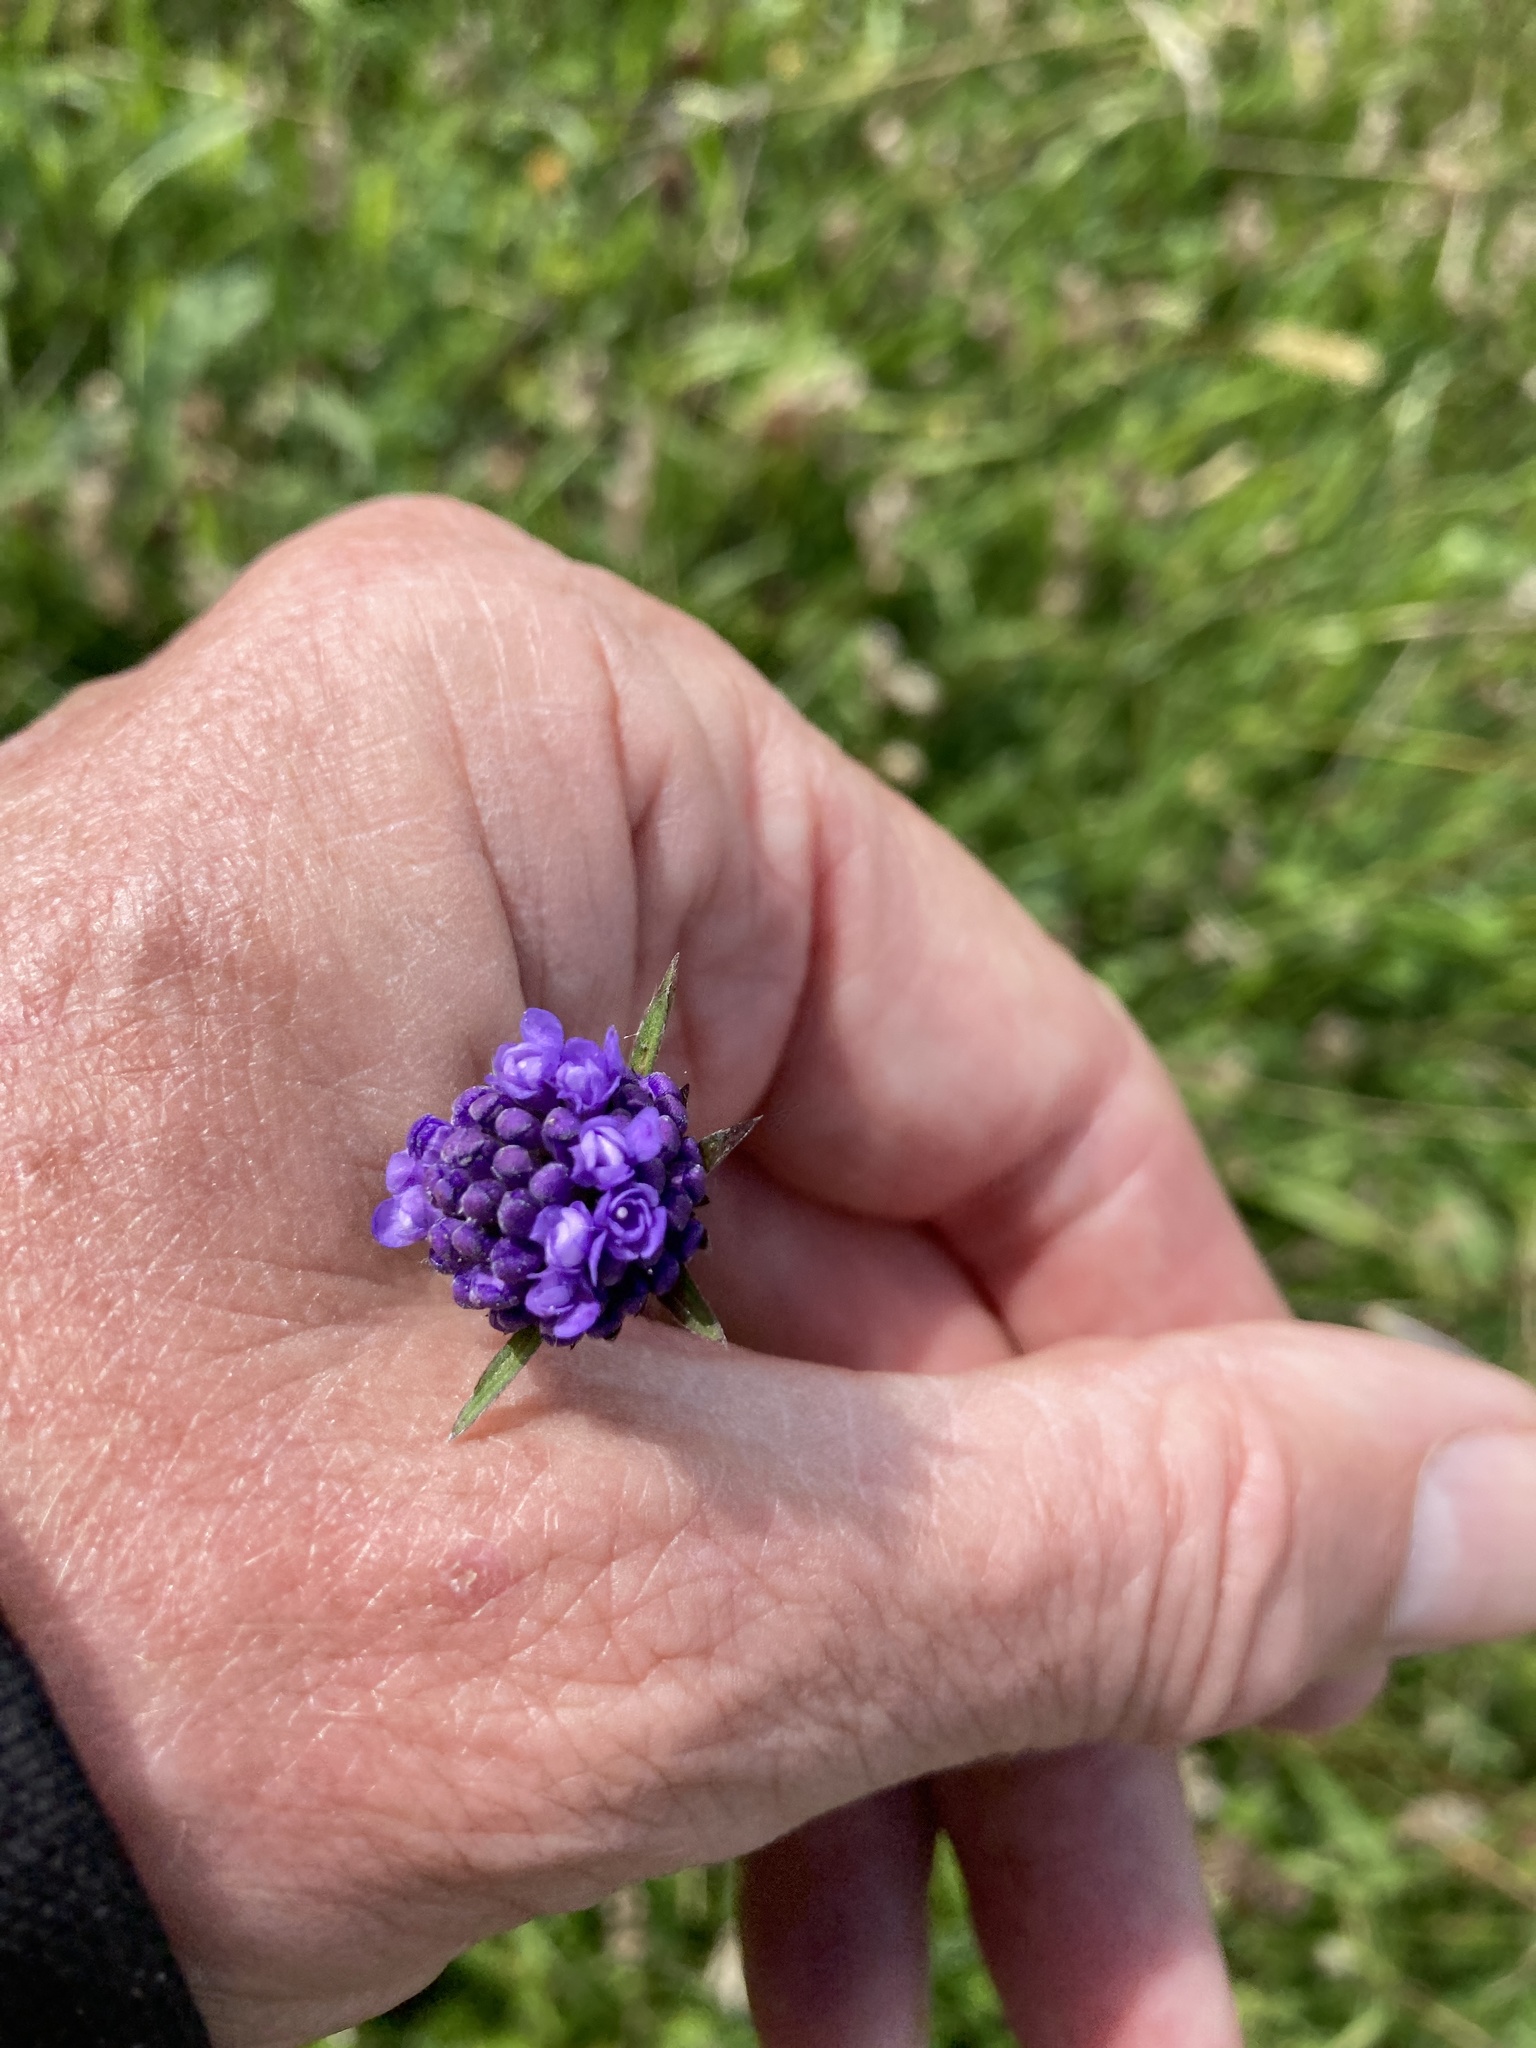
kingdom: Plantae
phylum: Tracheophyta
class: Magnoliopsida
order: Dipsacales
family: Caprifoliaceae
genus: Succisa
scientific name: Succisa pratensis
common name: Devil's-bit
